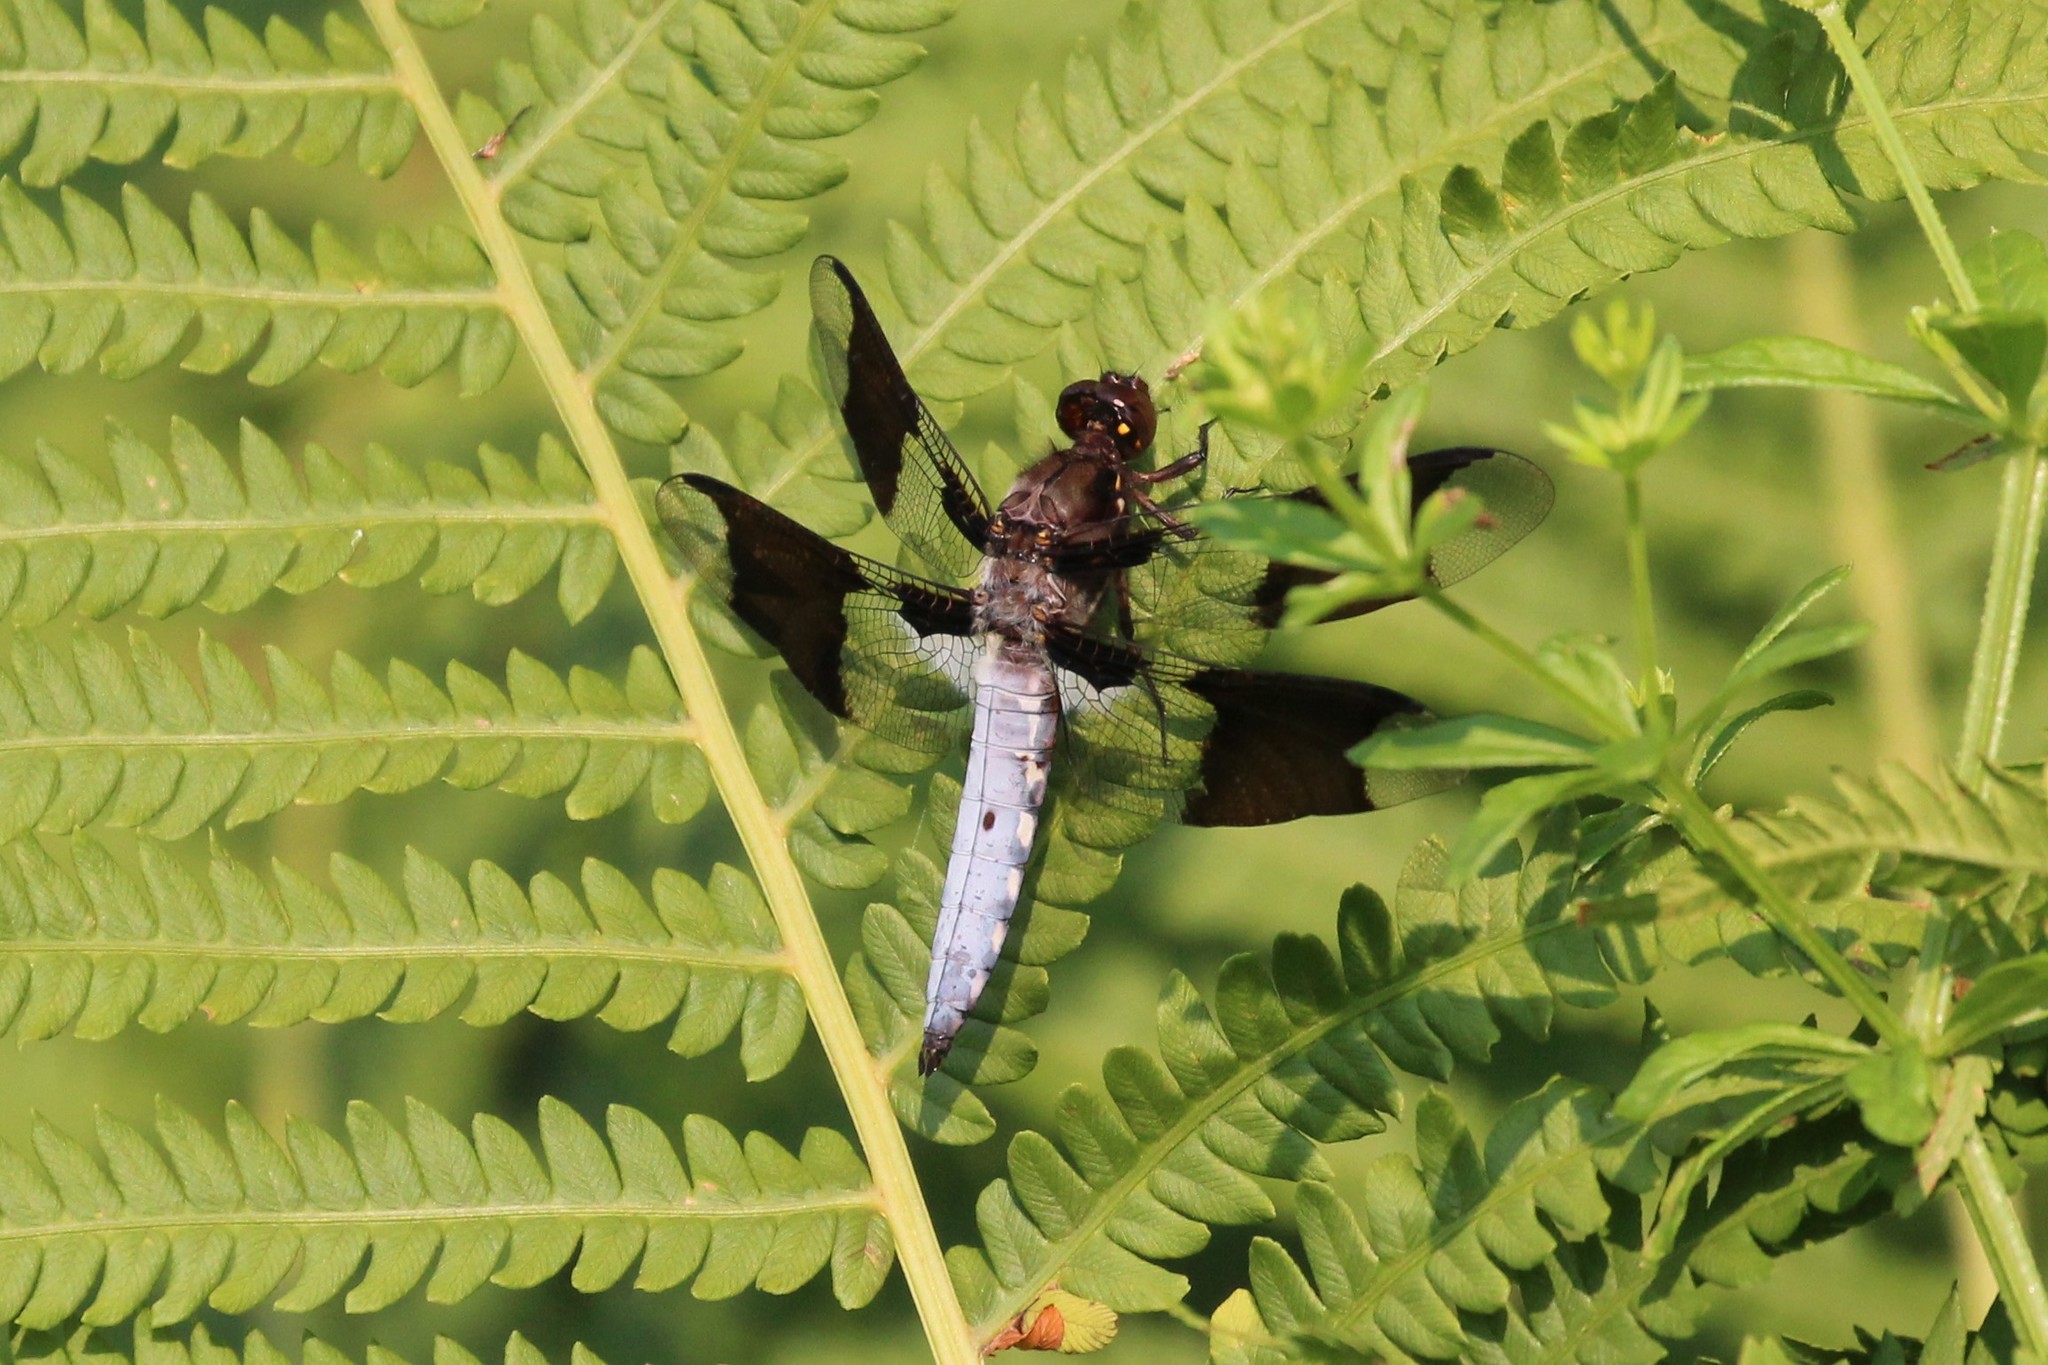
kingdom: Animalia
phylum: Arthropoda
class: Insecta
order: Odonata
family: Libellulidae
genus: Plathemis
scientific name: Plathemis lydia
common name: Common whitetail
